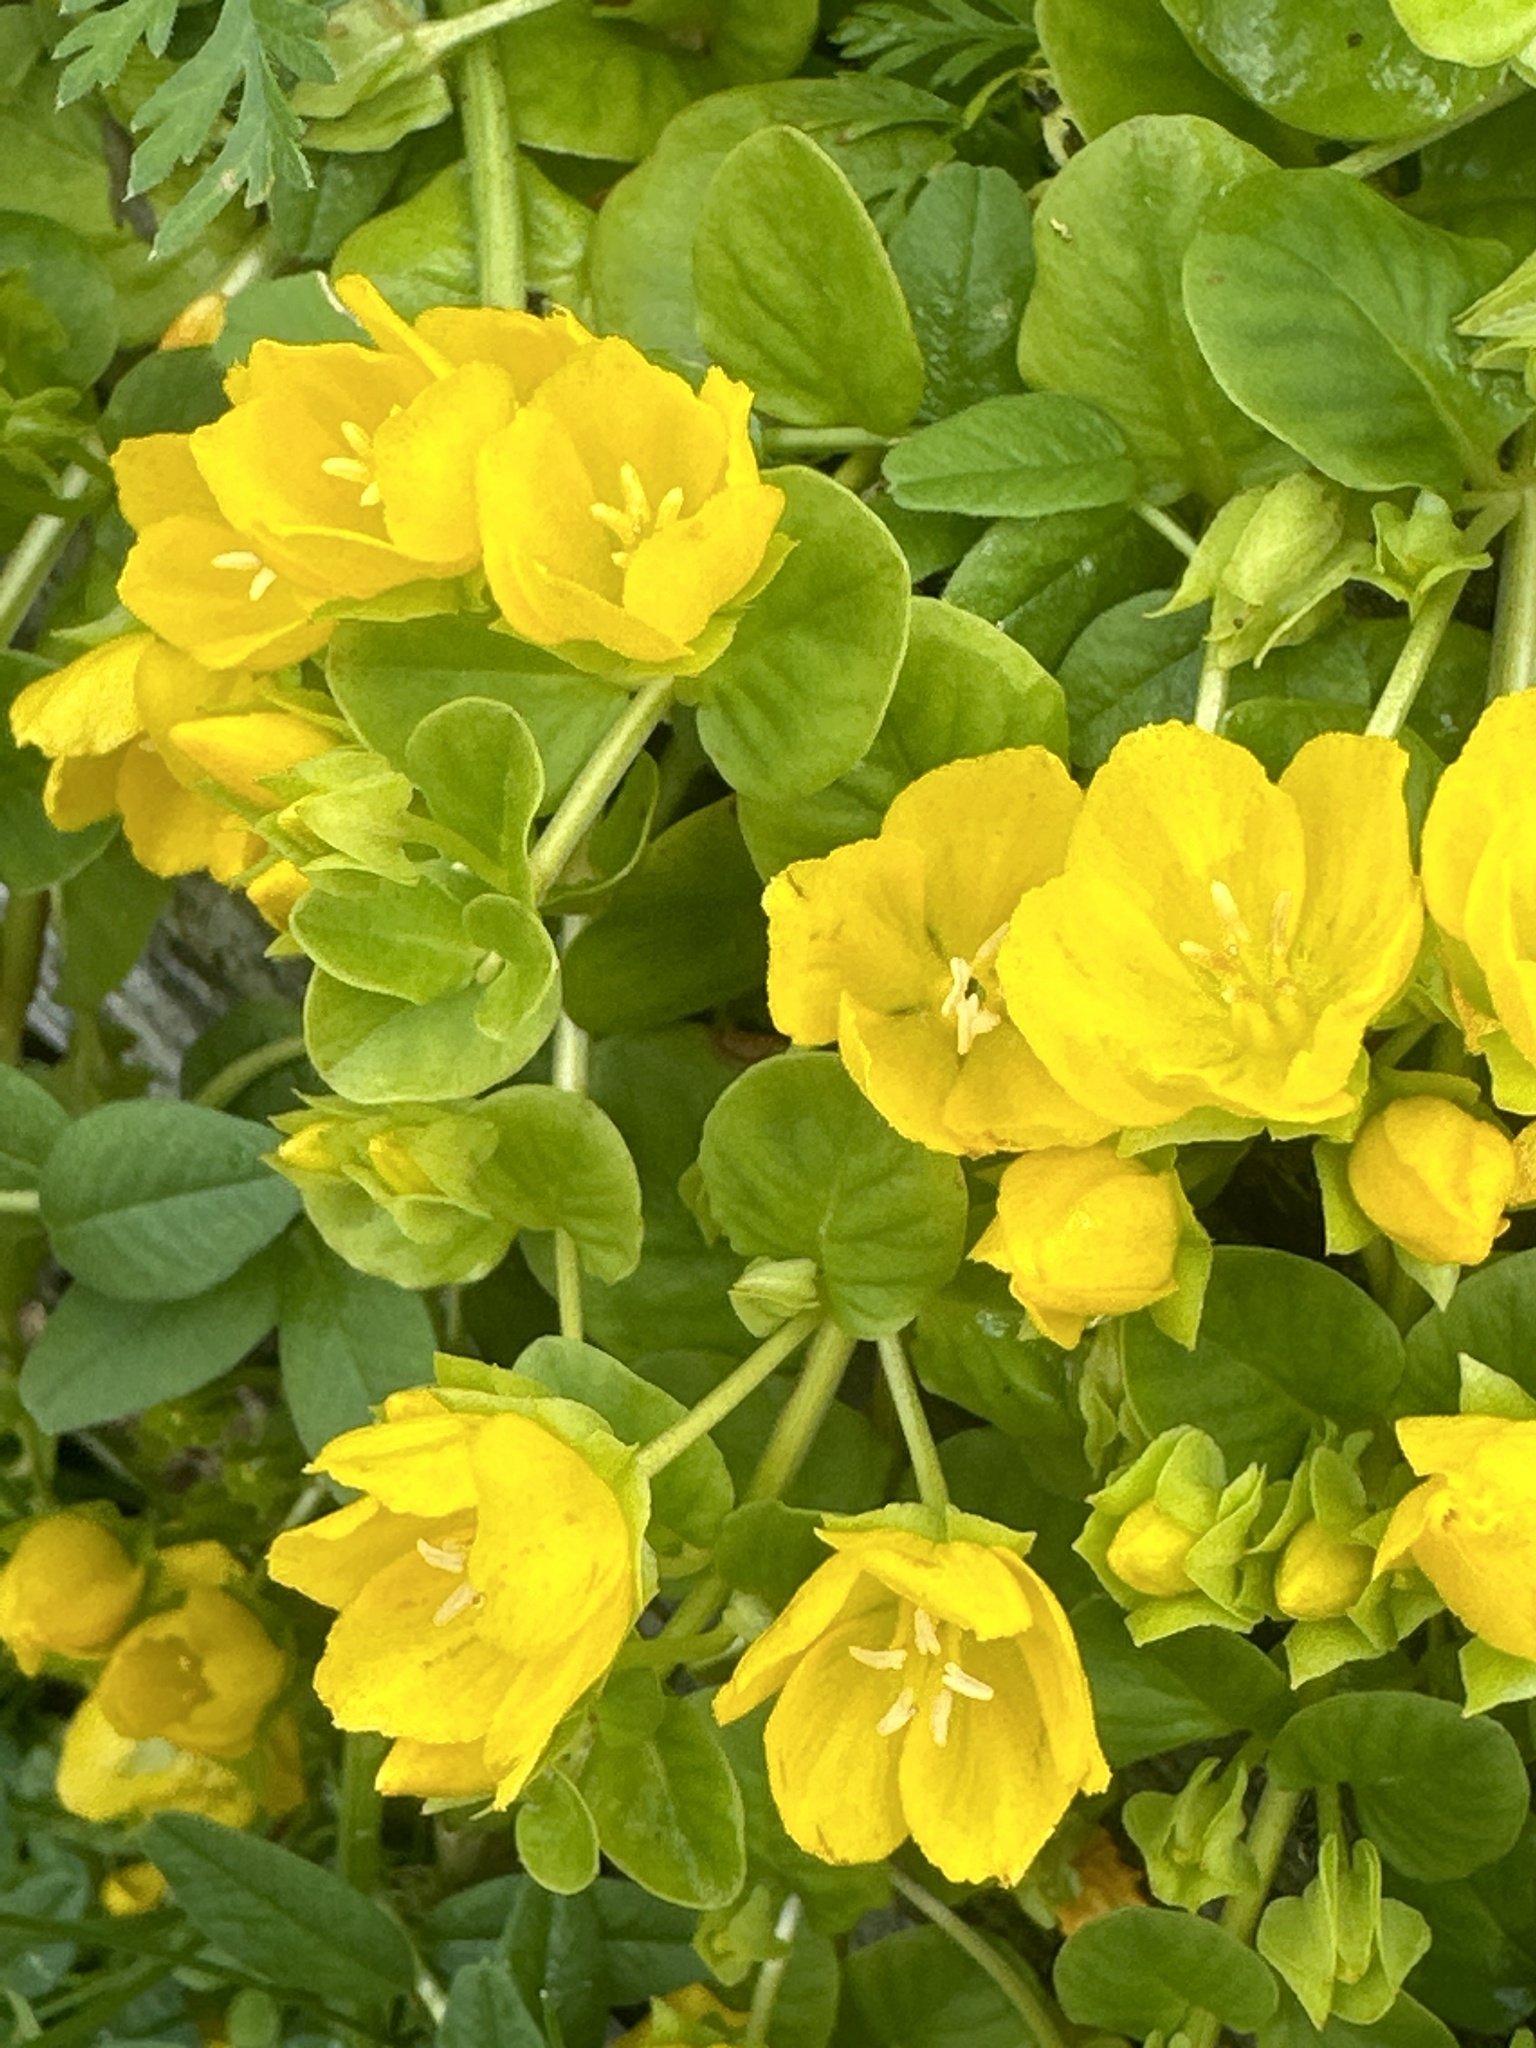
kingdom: Plantae
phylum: Tracheophyta
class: Magnoliopsida
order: Ericales
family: Primulaceae
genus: Lysimachia
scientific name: Lysimachia nummularia
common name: Moneywort
